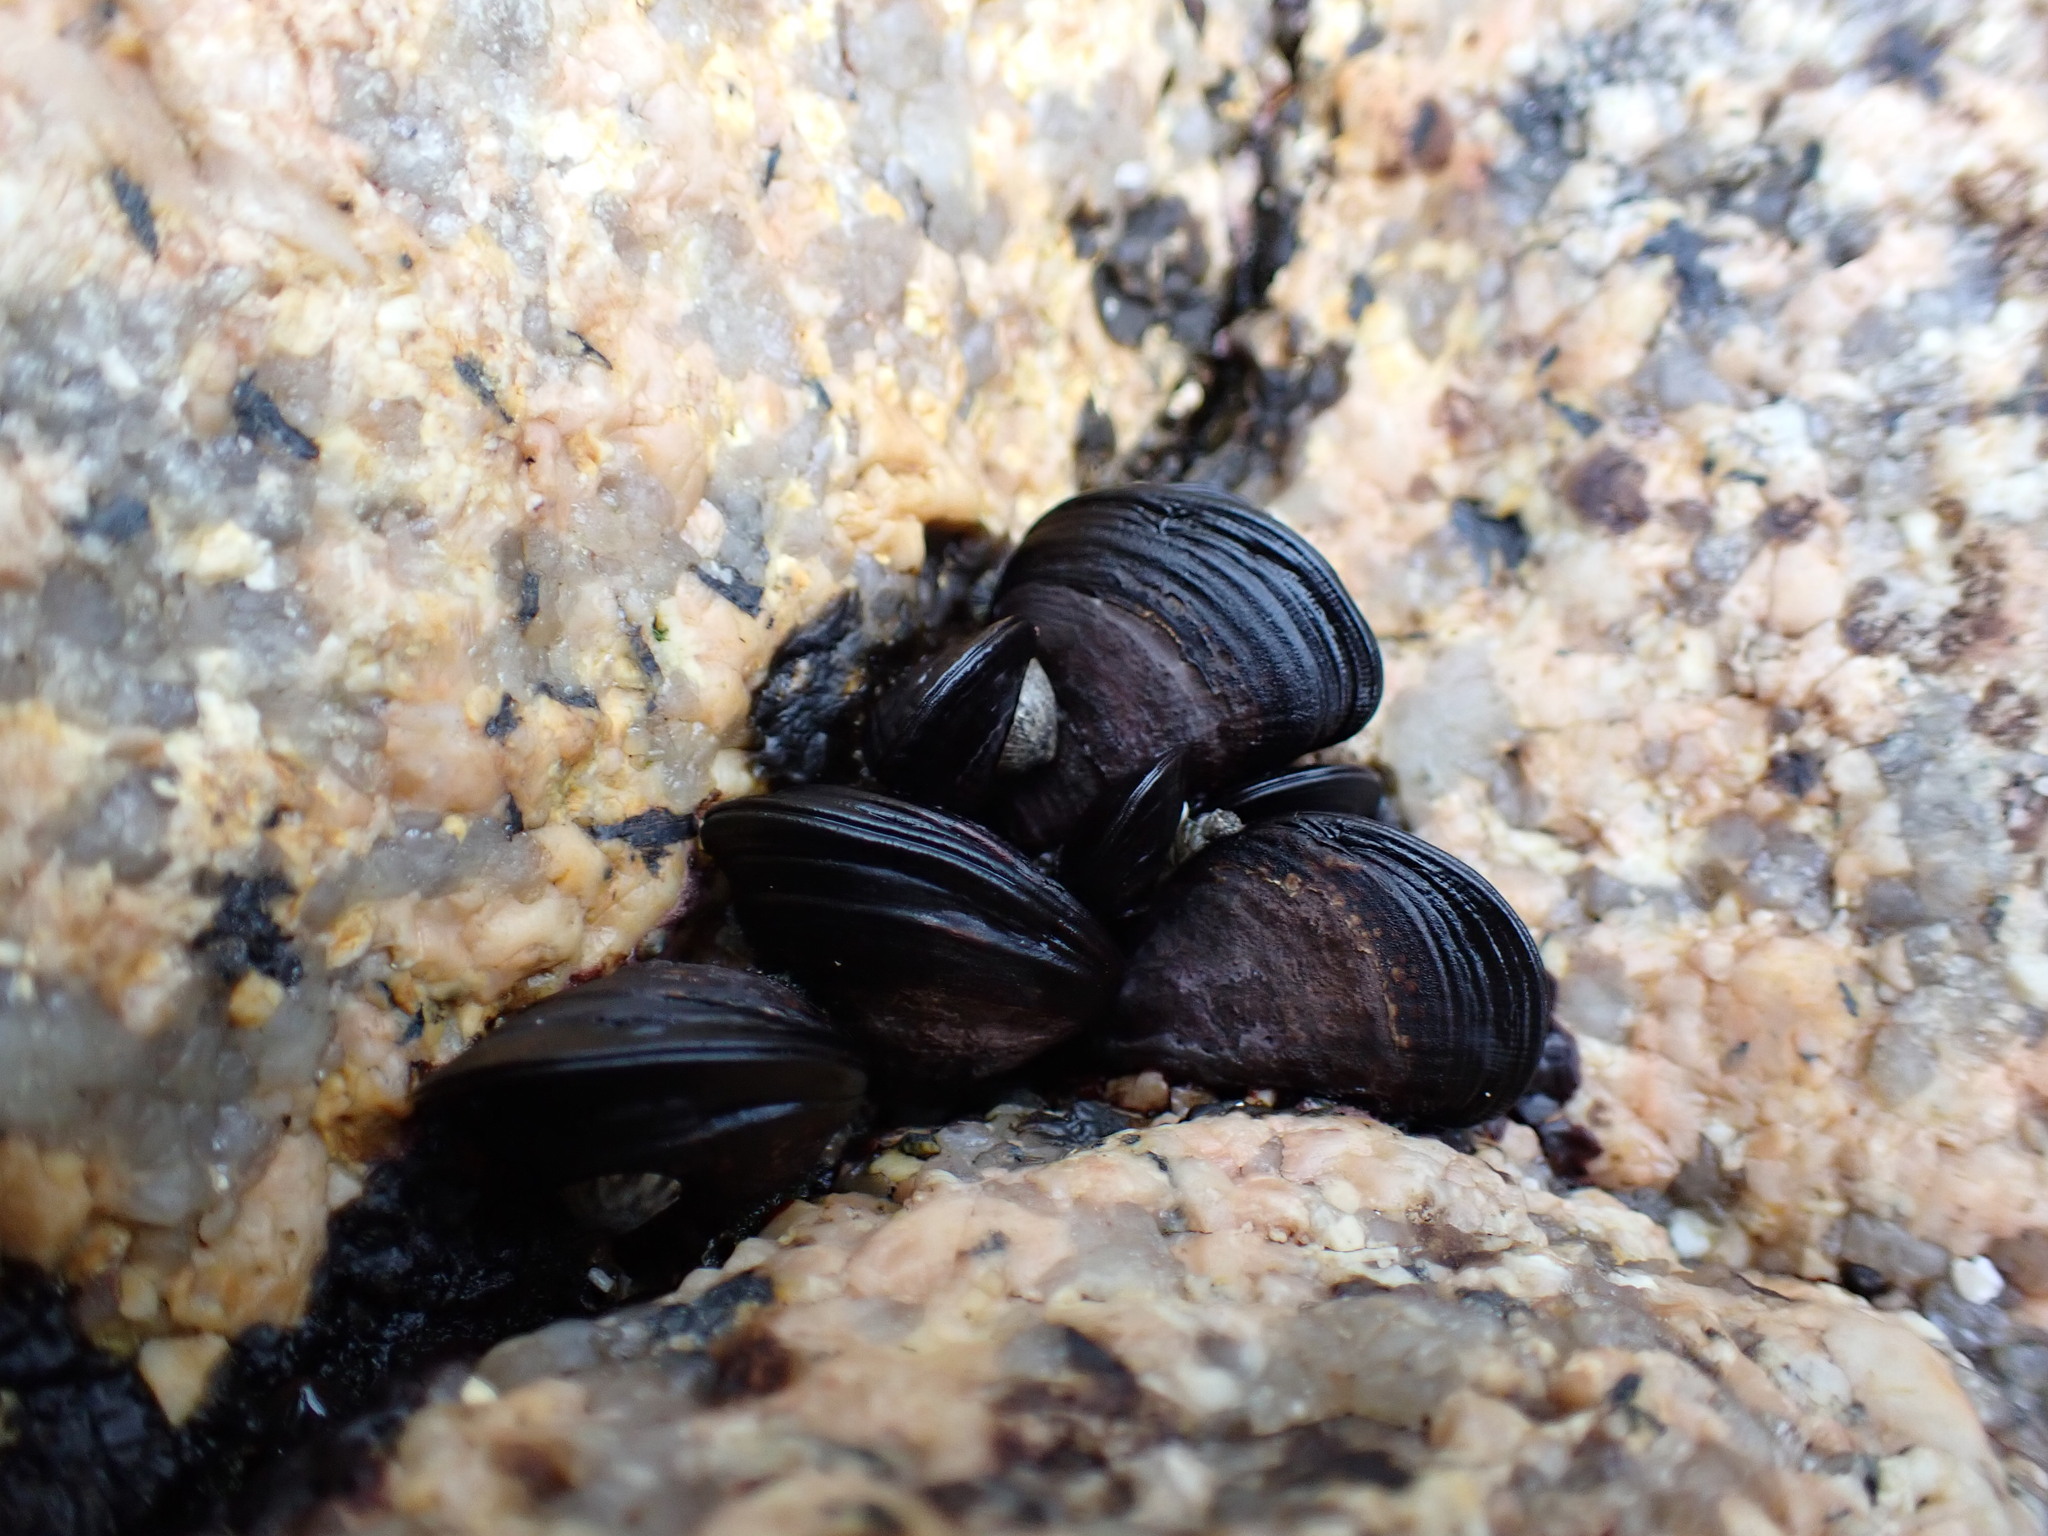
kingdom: Animalia
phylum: Mollusca
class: Bivalvia
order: Mytilida
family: Mytilidae
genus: Mytilisepta
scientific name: Mytilisepta virgata
